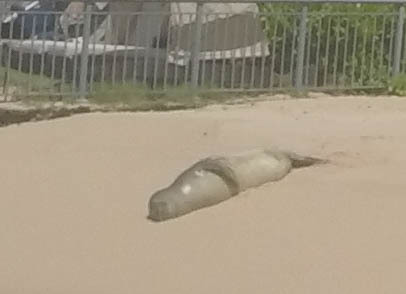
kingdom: Animalia
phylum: Chordata
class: Mammalia
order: Carnivora
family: Phocidae
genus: Neomonachus
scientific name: Neomonachus schauinslandi
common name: Hawaiian monk seal
